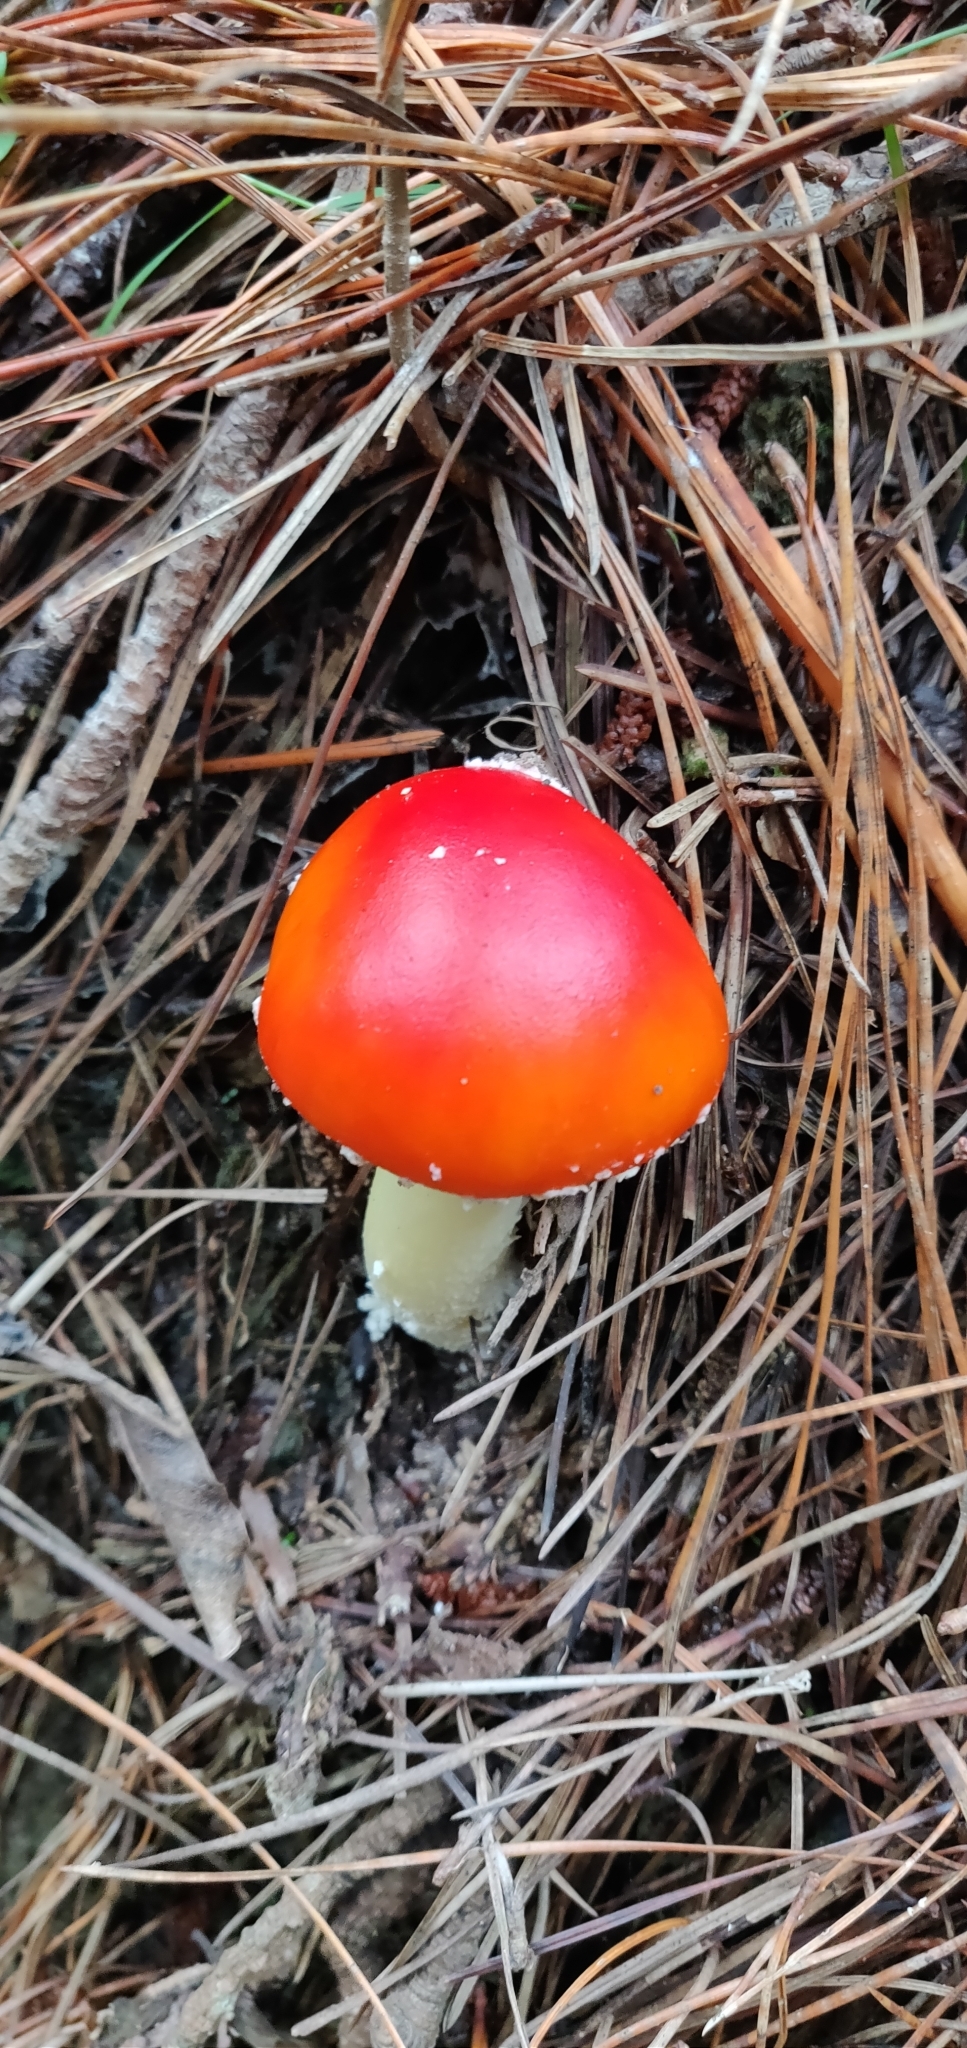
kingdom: Fungi
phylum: Basidiomycota
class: Agaricomycetes
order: Agaricales
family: Amanitaceae
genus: Amanita
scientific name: Amanita muscaria
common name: Fly agaric
